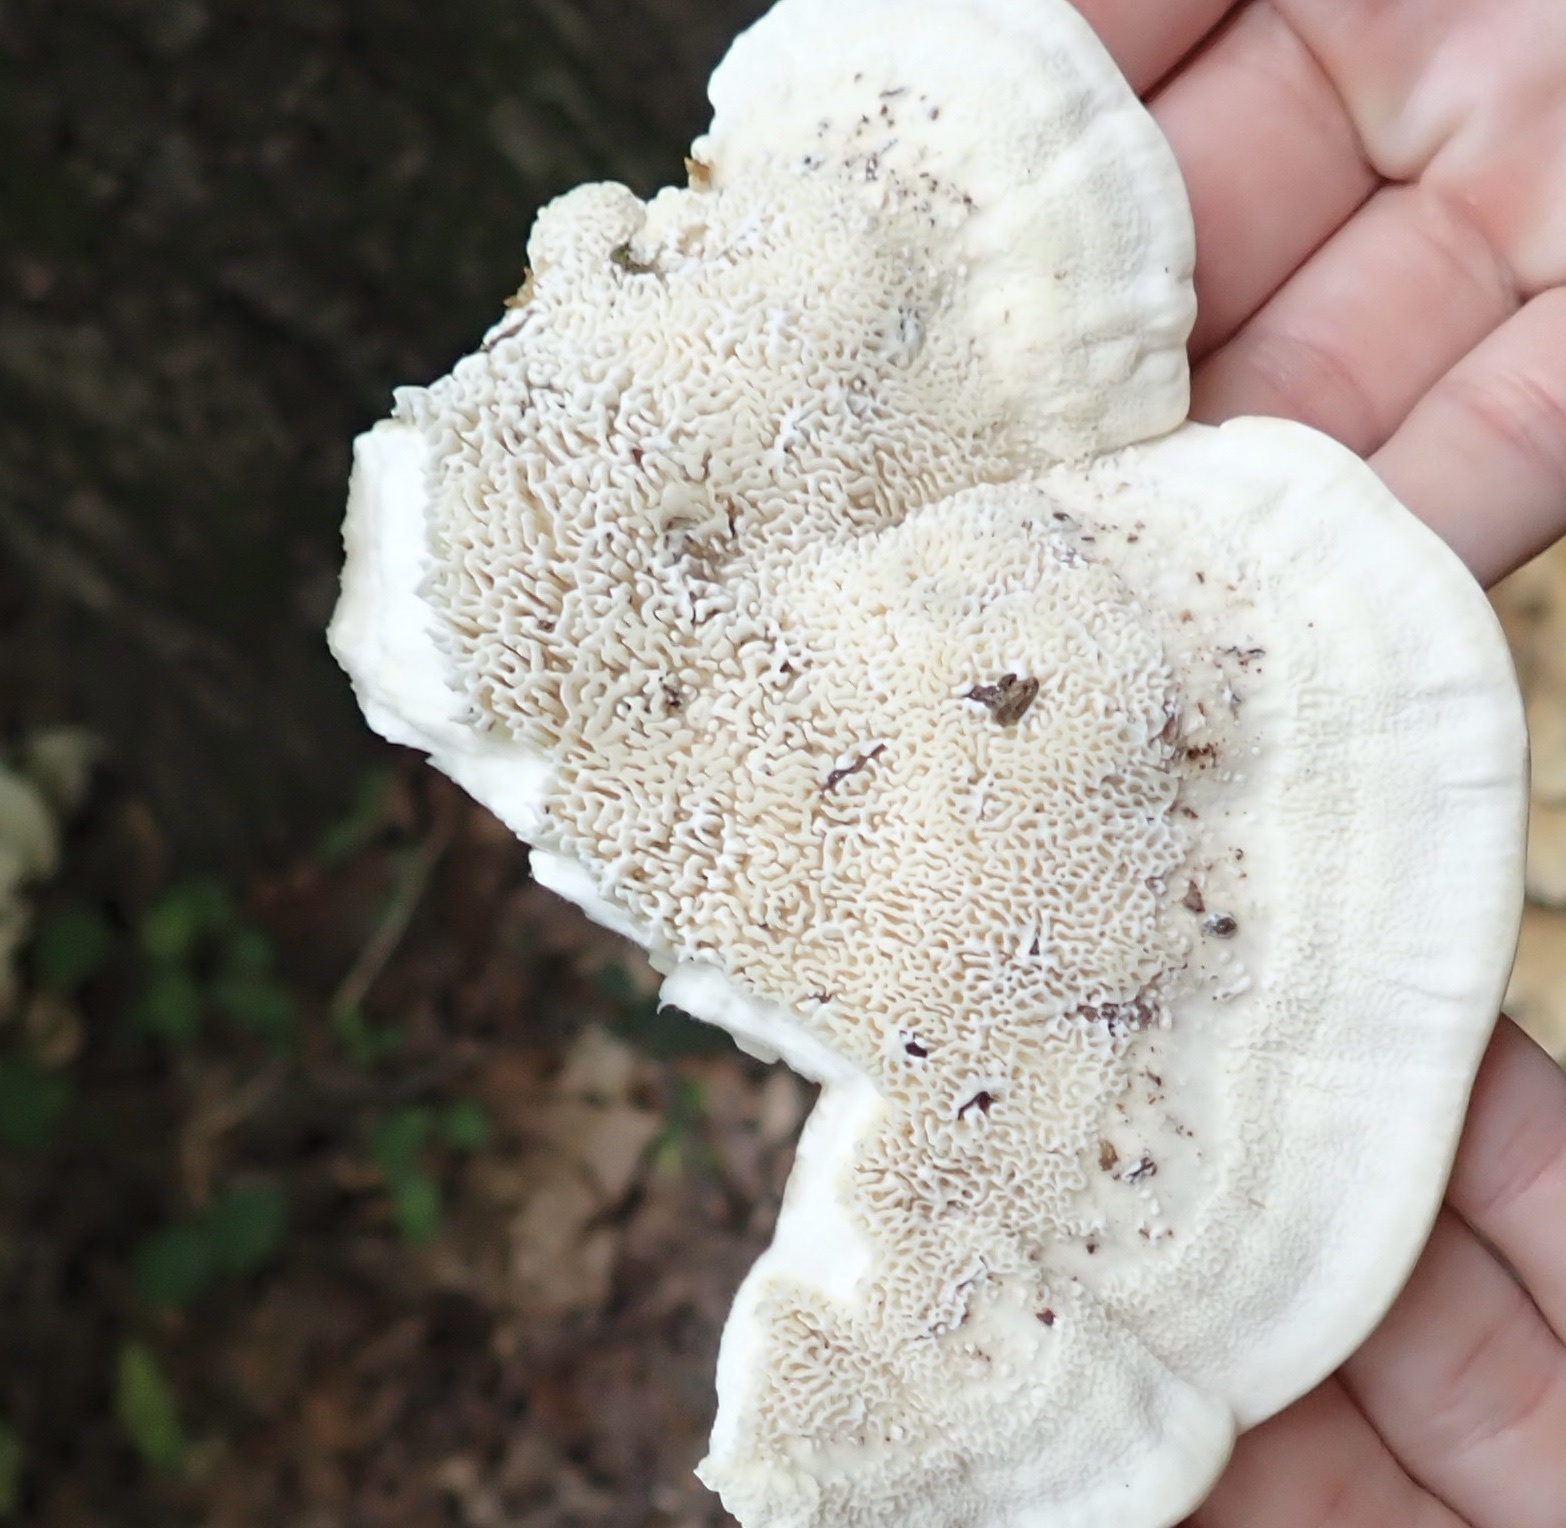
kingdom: Fungi
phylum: Basidiomycota
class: Agaricomycetes
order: Russulales
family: Bondarzewiaceae
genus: Bondarzewia
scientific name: Bondarzewia berkeleyi
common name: Berkeley's polypore
